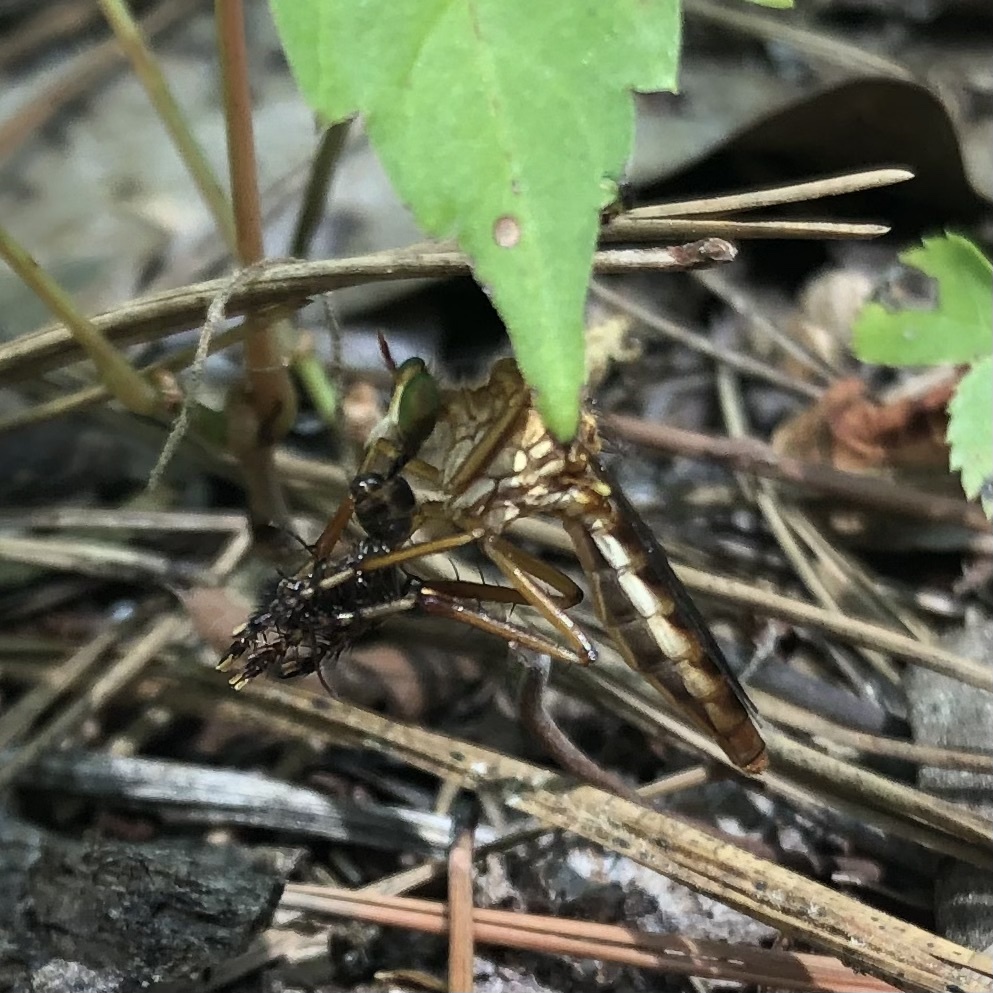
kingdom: Animalia
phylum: Arthropoda
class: Insecta
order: Diptera
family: Asilidae
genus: Diogmites
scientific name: Diogmites
